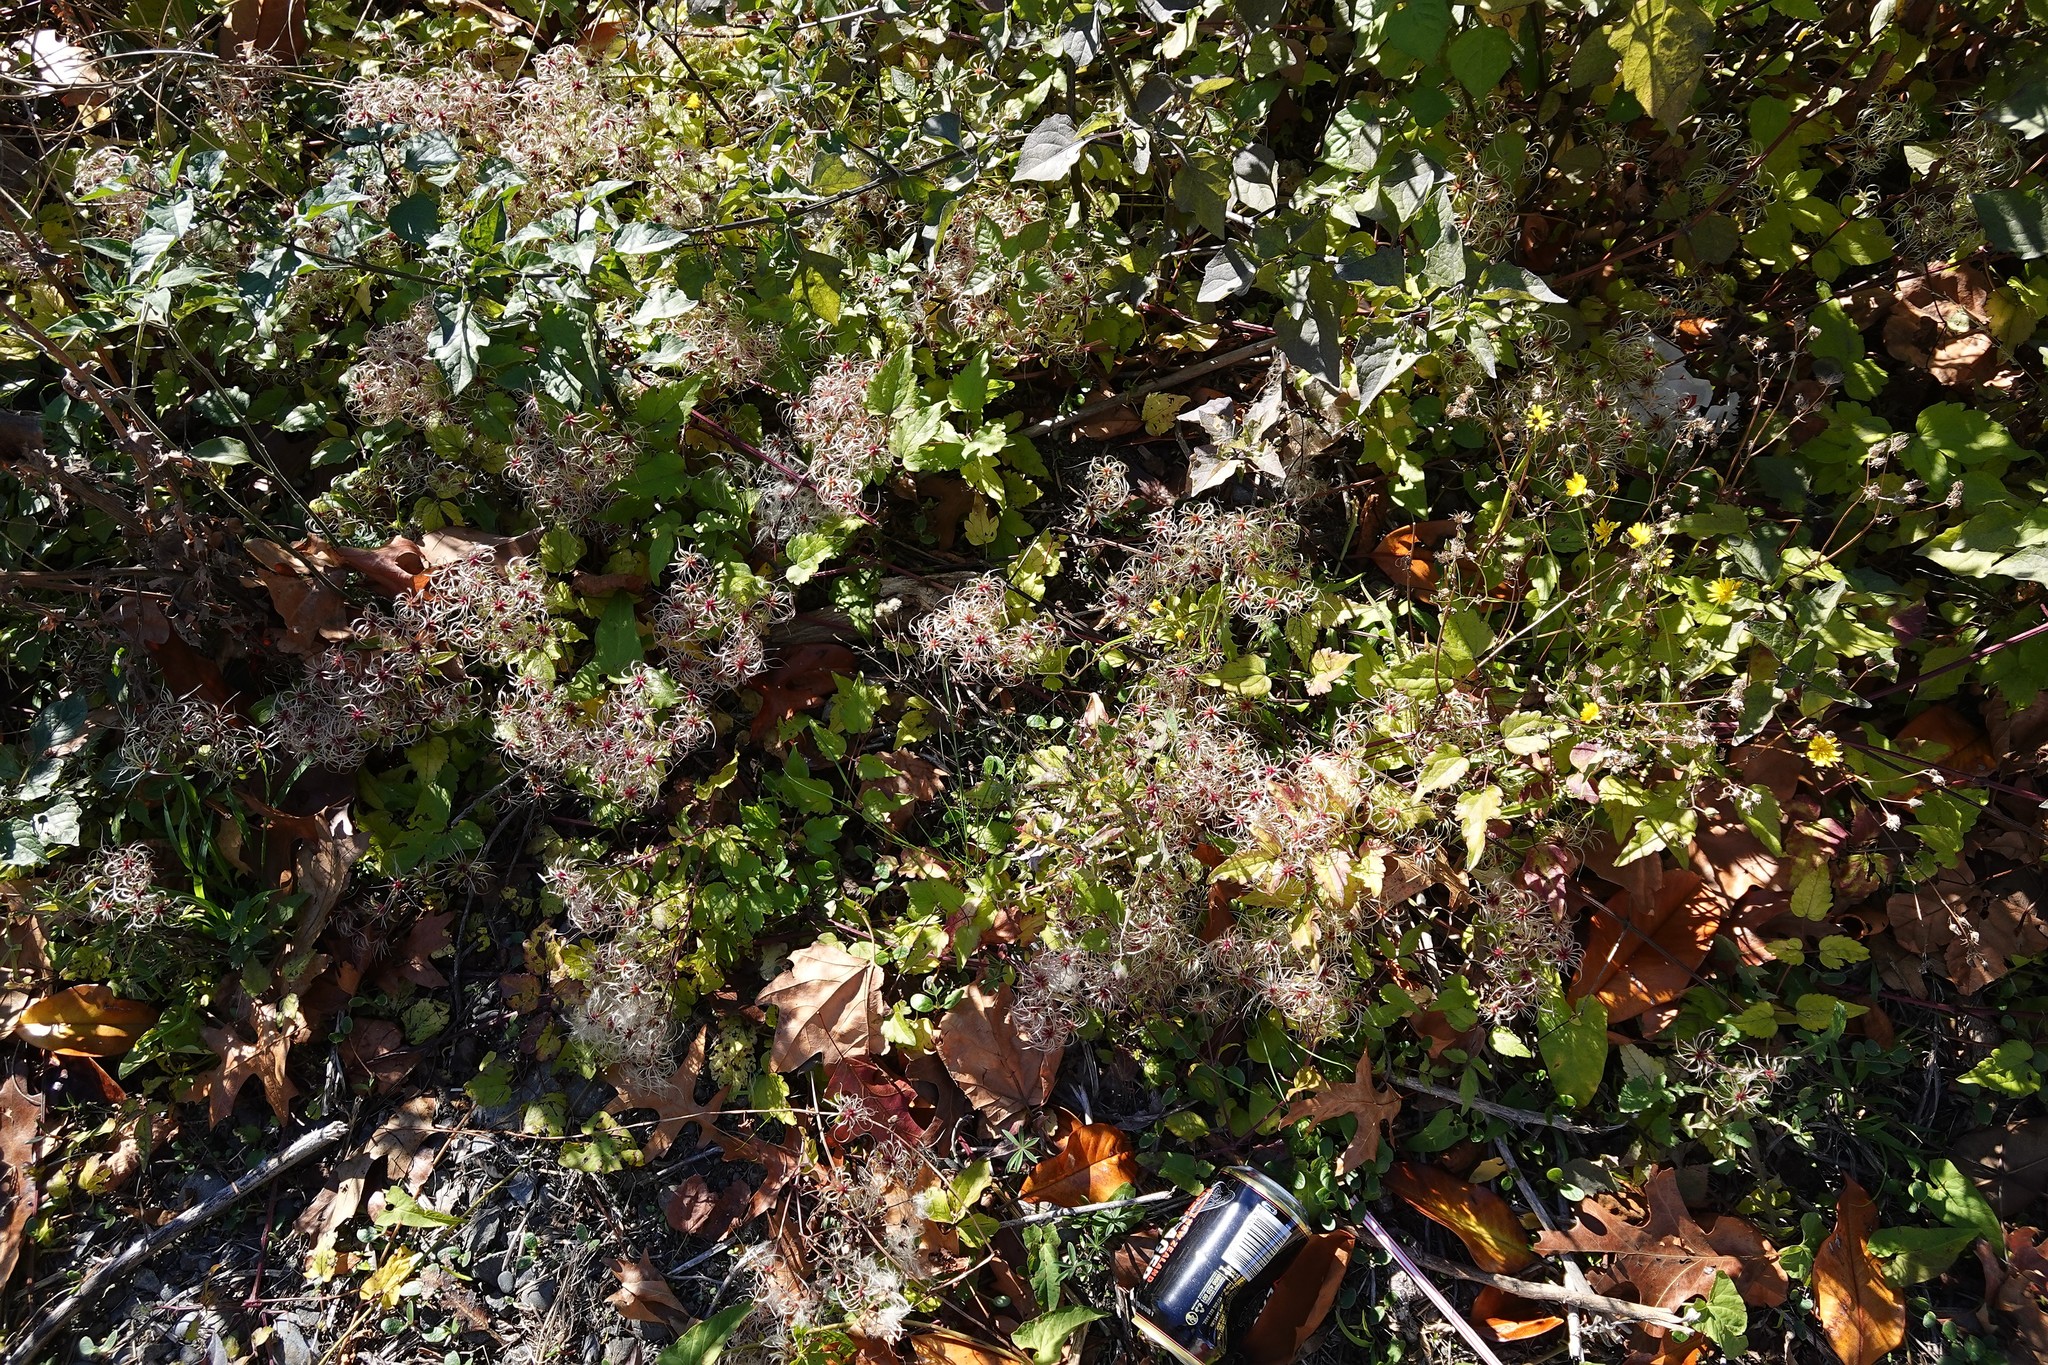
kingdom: Plantae
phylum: Tracheophyta
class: Magnoliopsida
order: Ranunculales
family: Ranunculaceae
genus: Clematis
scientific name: Clematis vitalba
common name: Evergreen clematis
